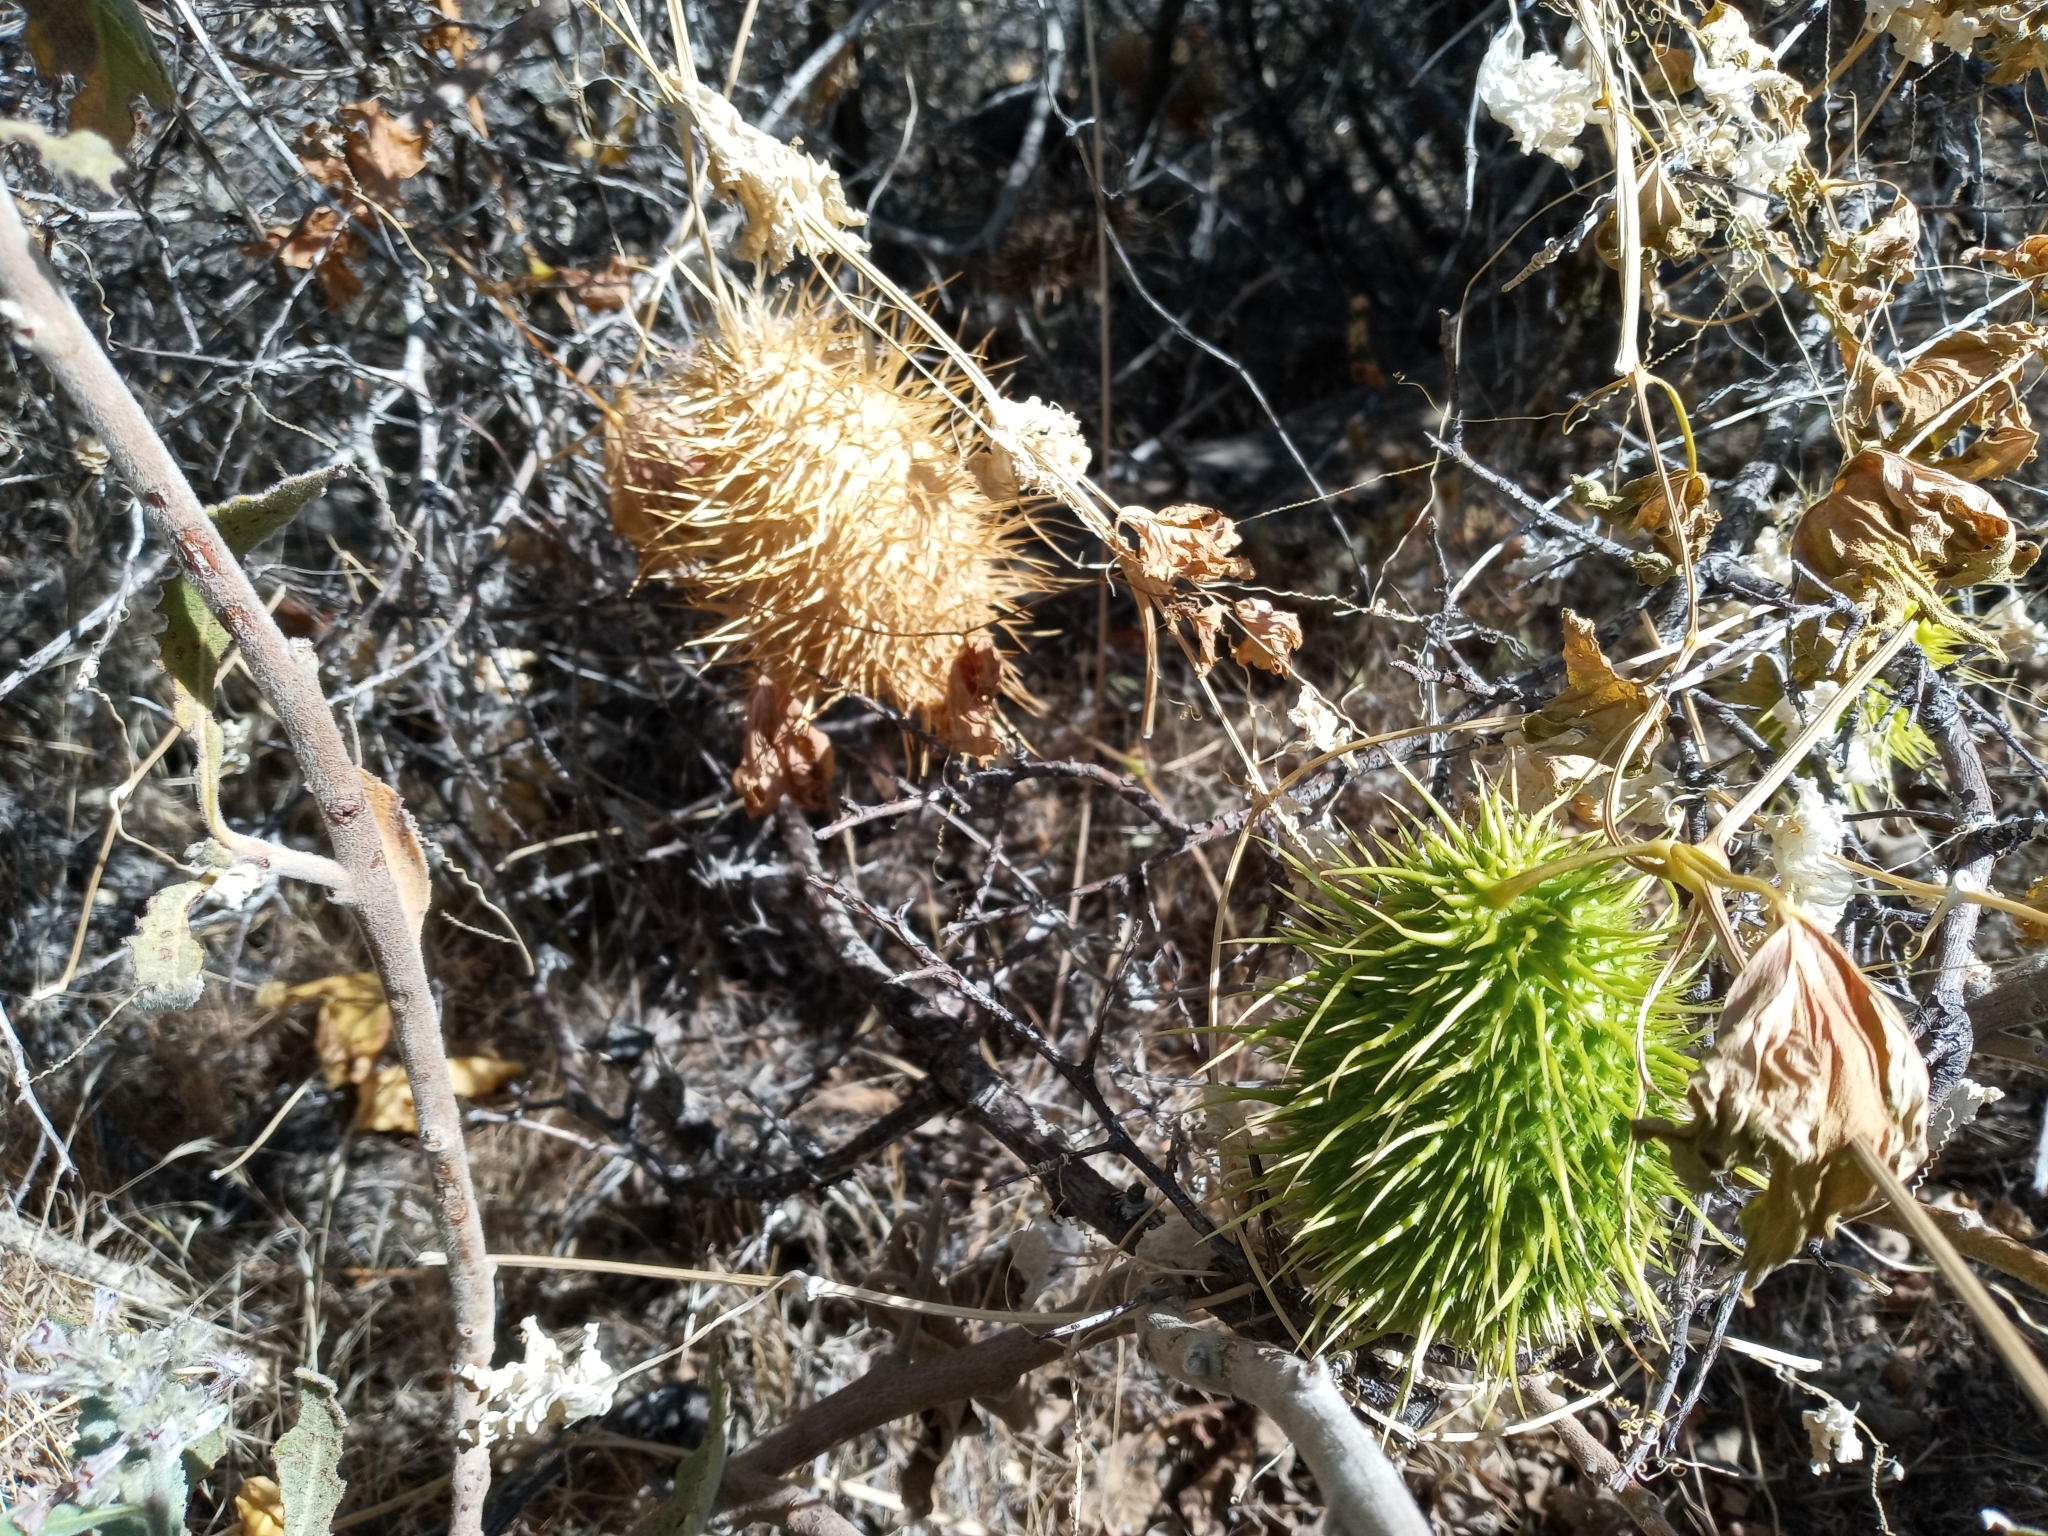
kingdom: Plantae
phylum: Tracheophyta
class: Magnoliopsida
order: Cucurbitales
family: Cucurbitaceae
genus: Marah
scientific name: Marah horrida
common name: Sierra manroot
